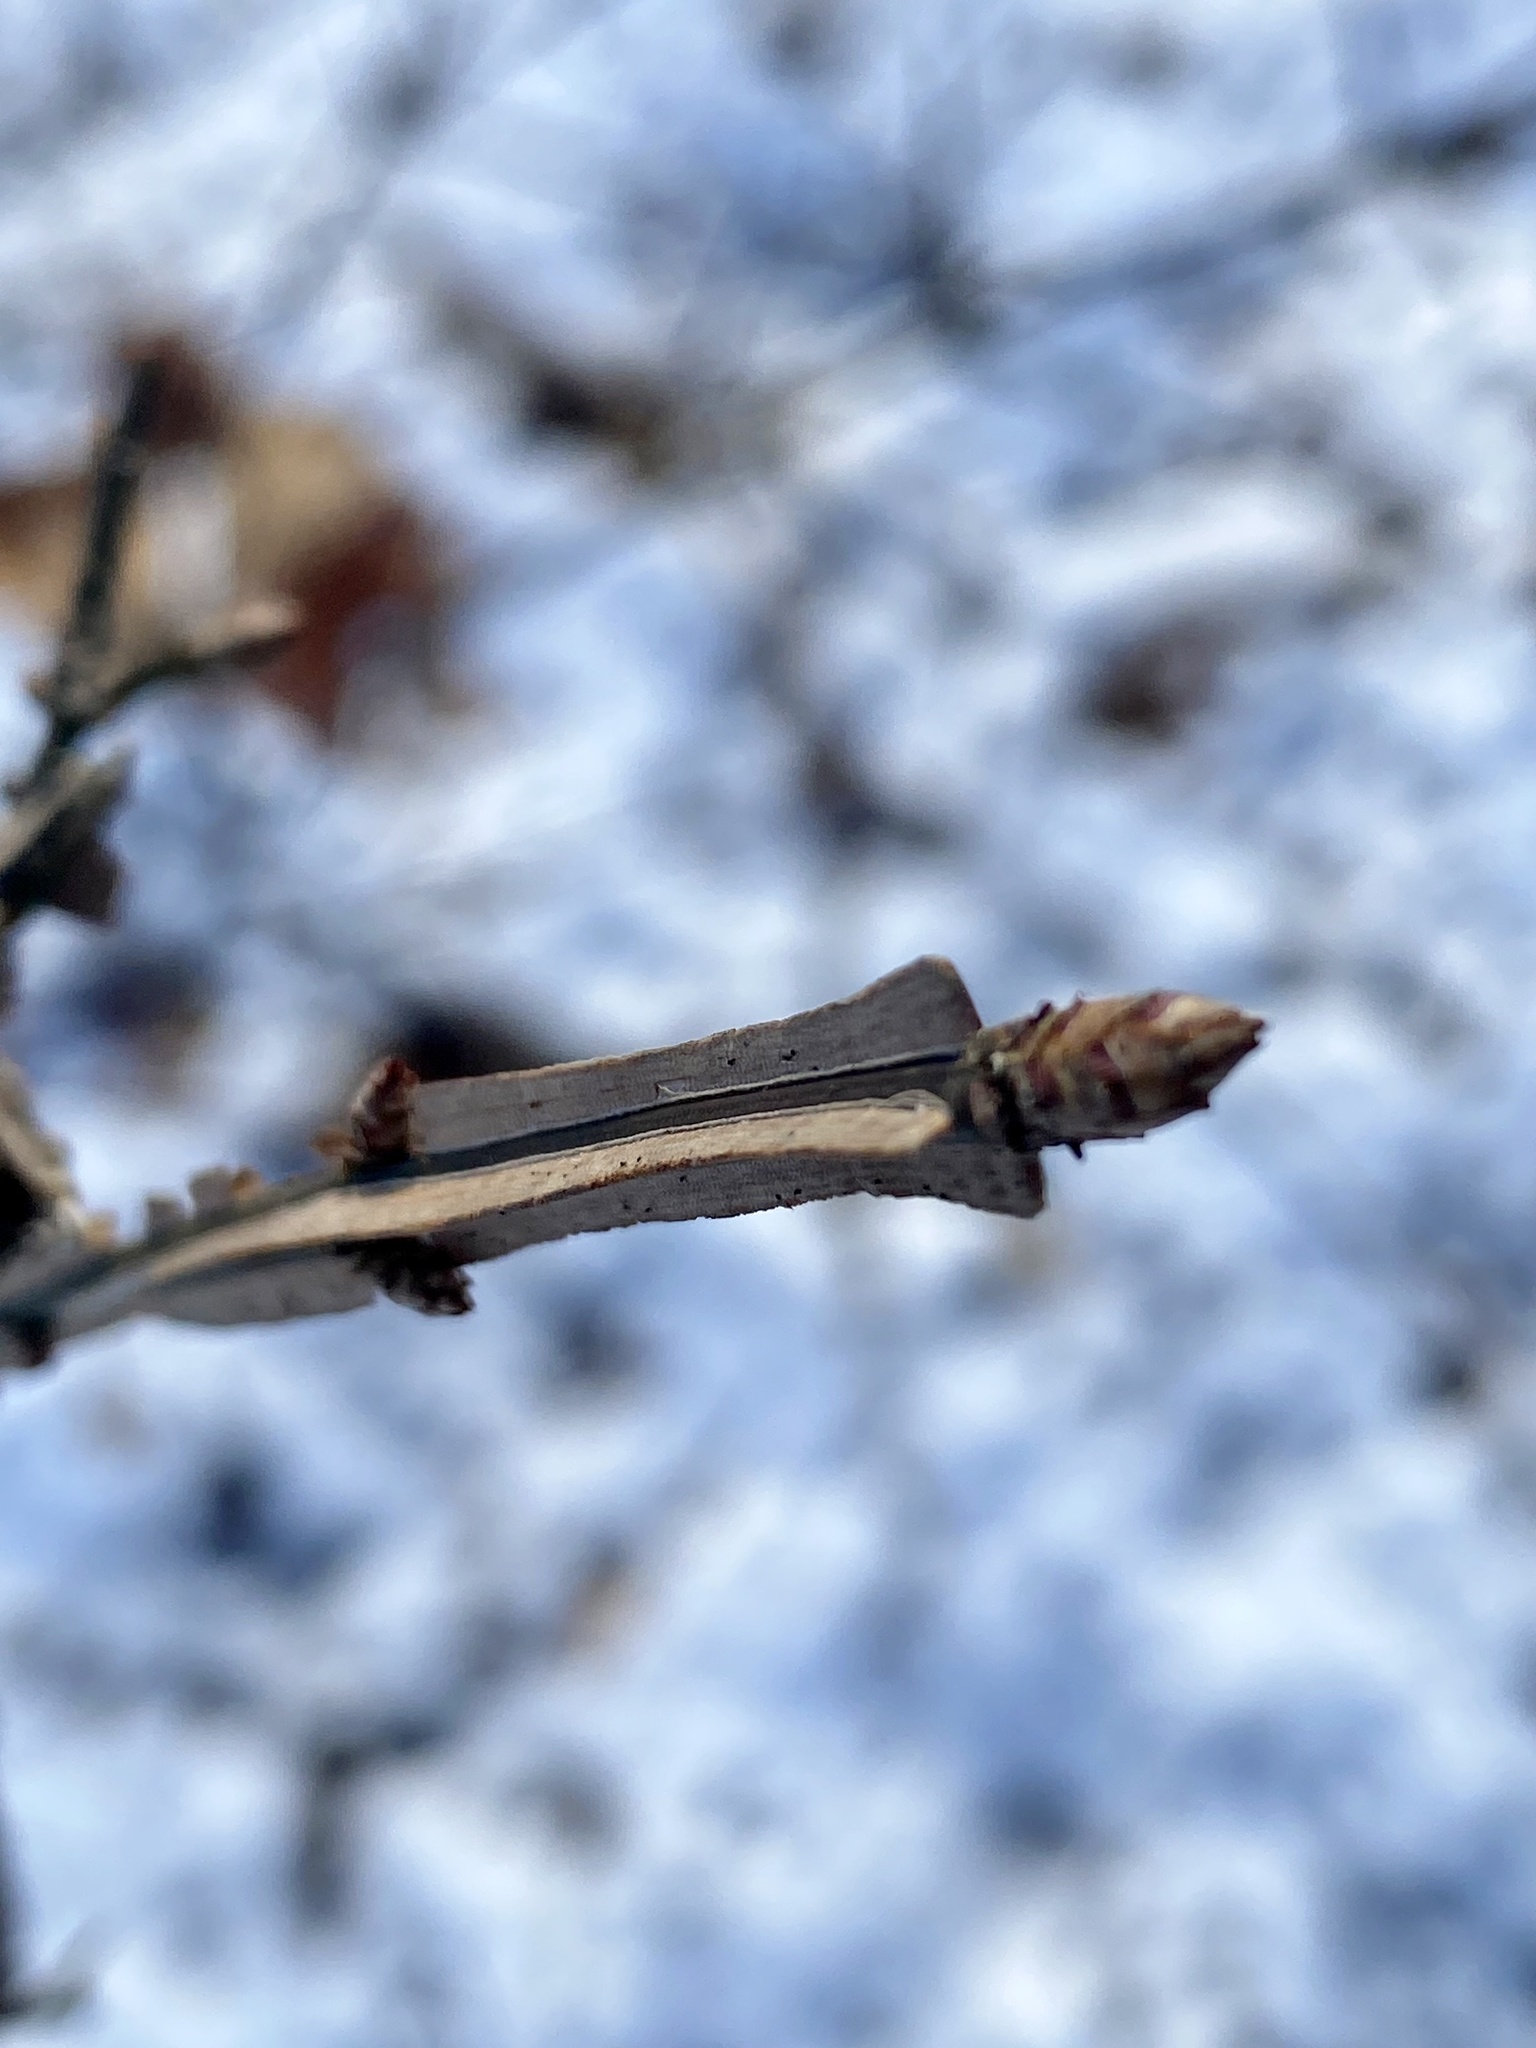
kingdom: Plantae
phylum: Tracheophyta
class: Magnoliopsida
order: Celastrales
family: Celastraceae
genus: Euonymus
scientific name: Euonymus alatus
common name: Winged euonymus
